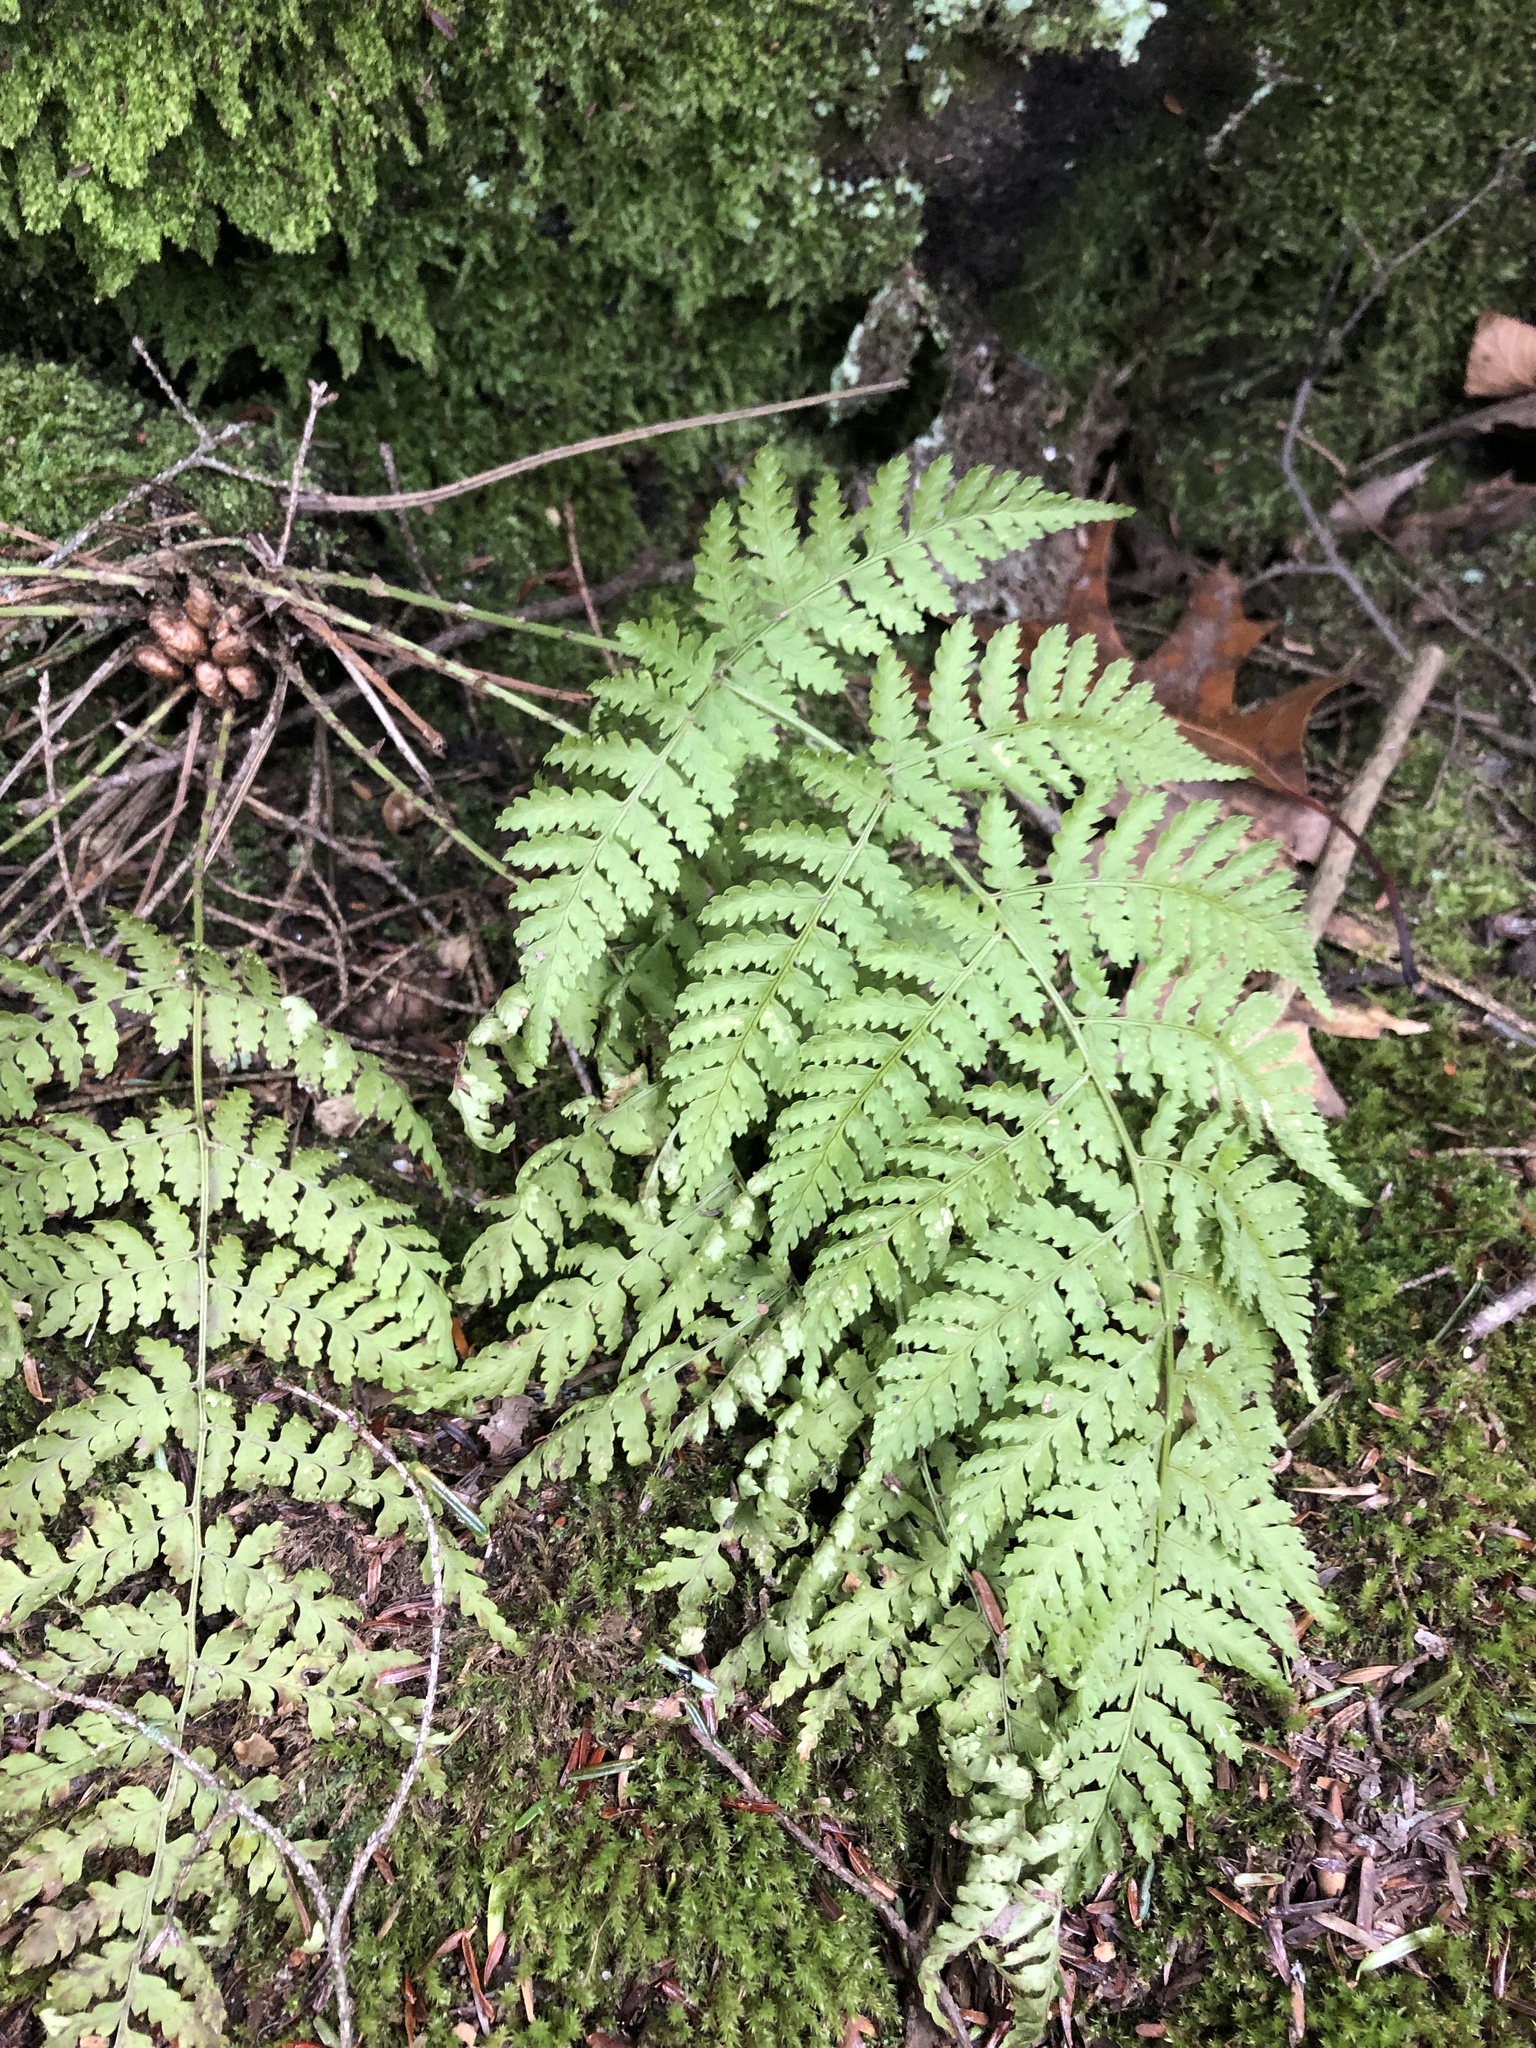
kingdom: Plantae
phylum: Tracheophyta
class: Polypodiopsida
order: Polypodiales
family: Dryopteridaceae
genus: Dryopteris
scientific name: Dryopteris intermedia
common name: Evergreen wood fern
